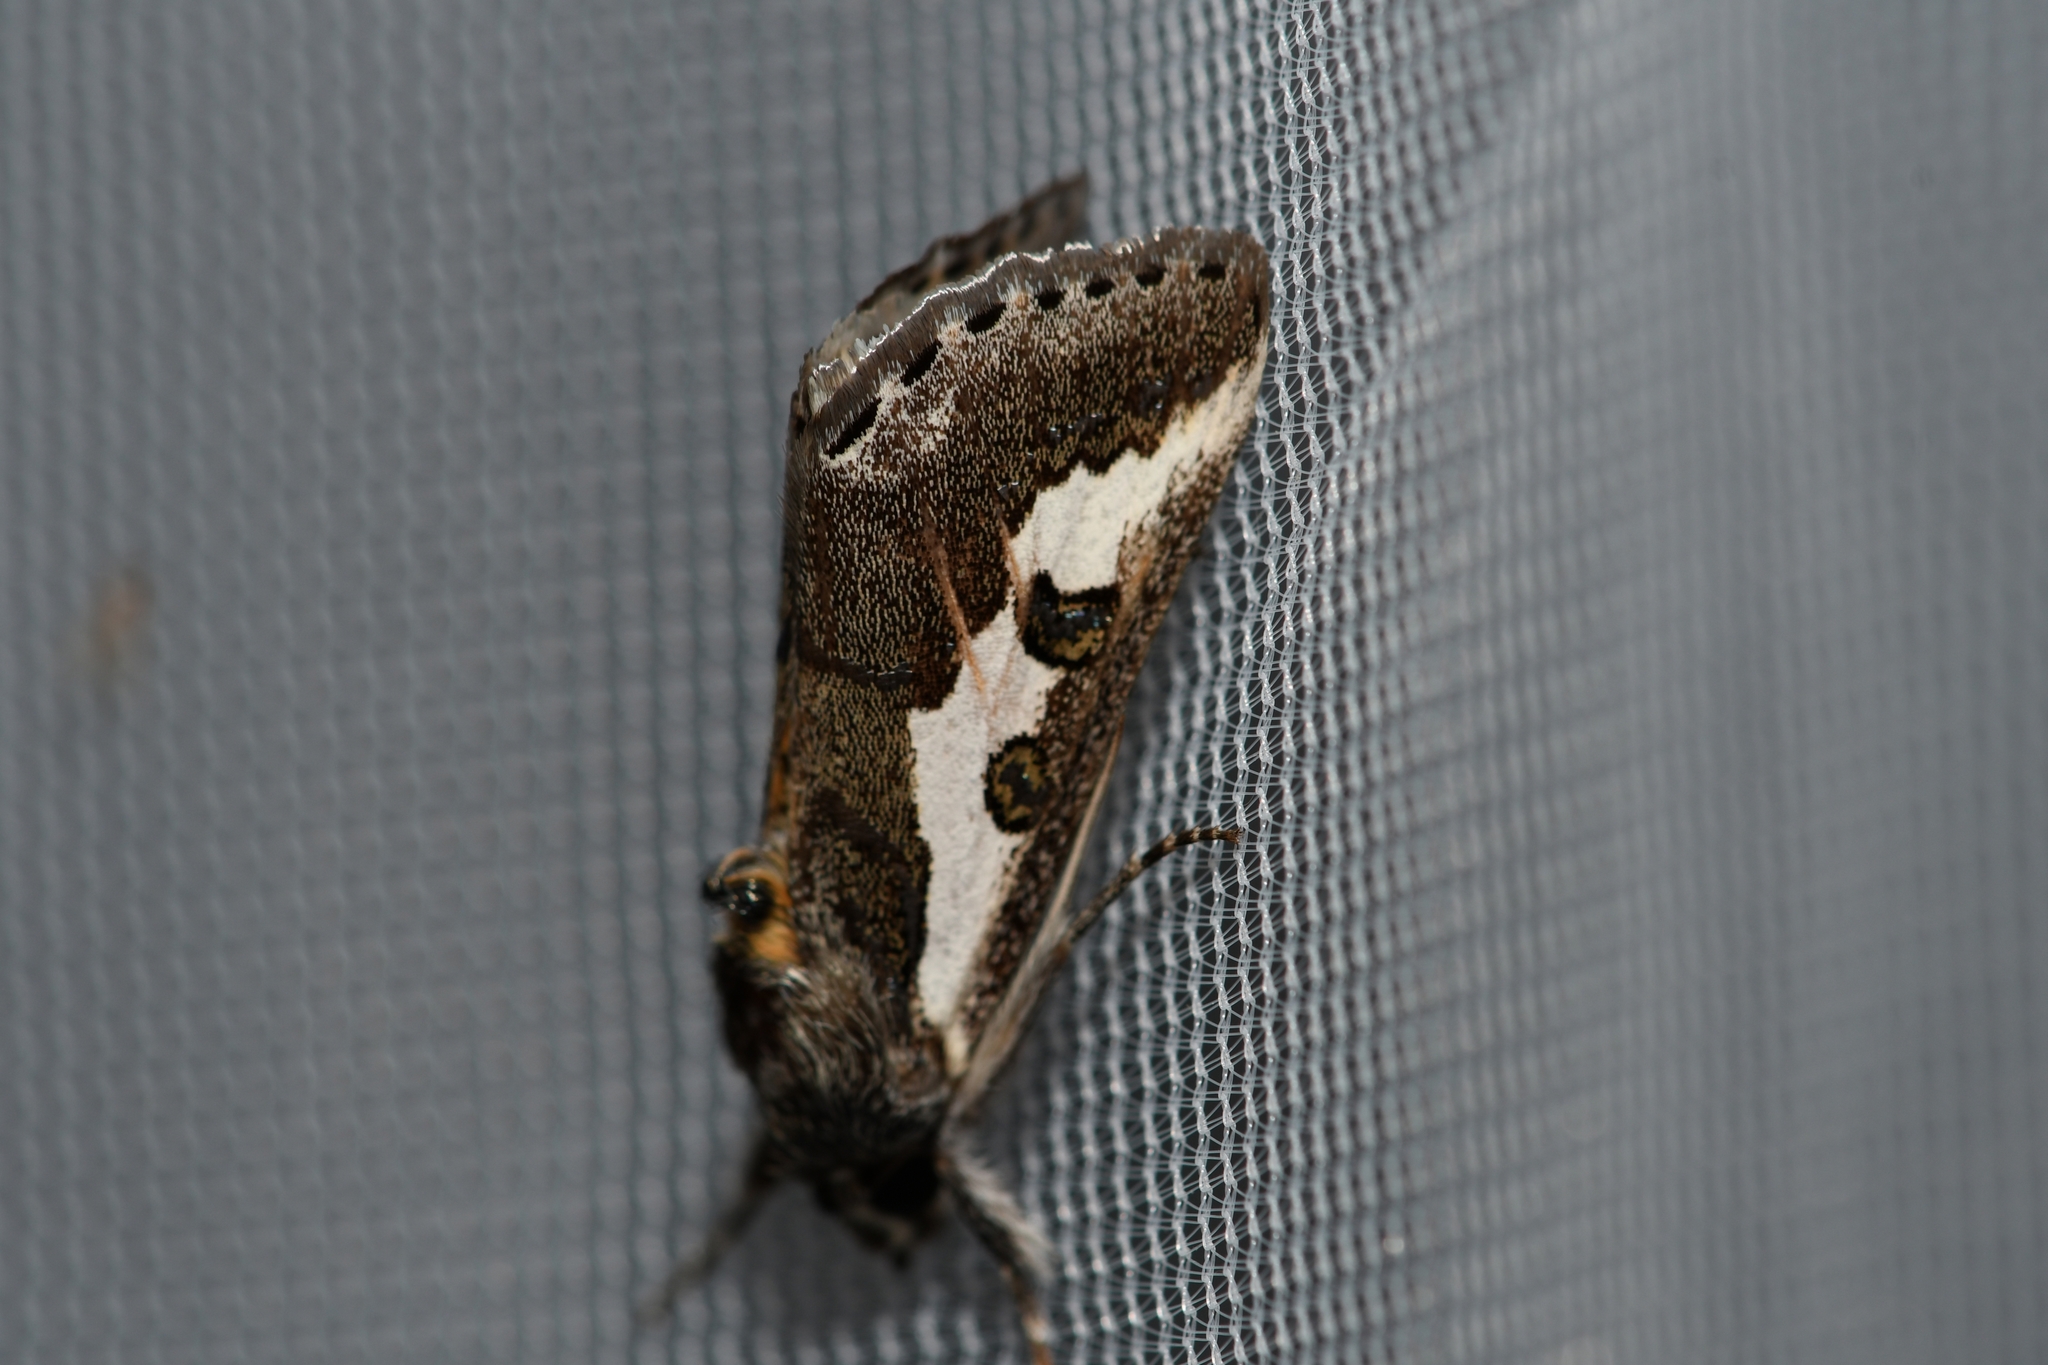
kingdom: Animalia
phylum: Arthropoda
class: Insecta
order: Lepidoptera
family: Noctuidae
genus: Euscirrhopterus
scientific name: Euscirrhopterus gloveri
